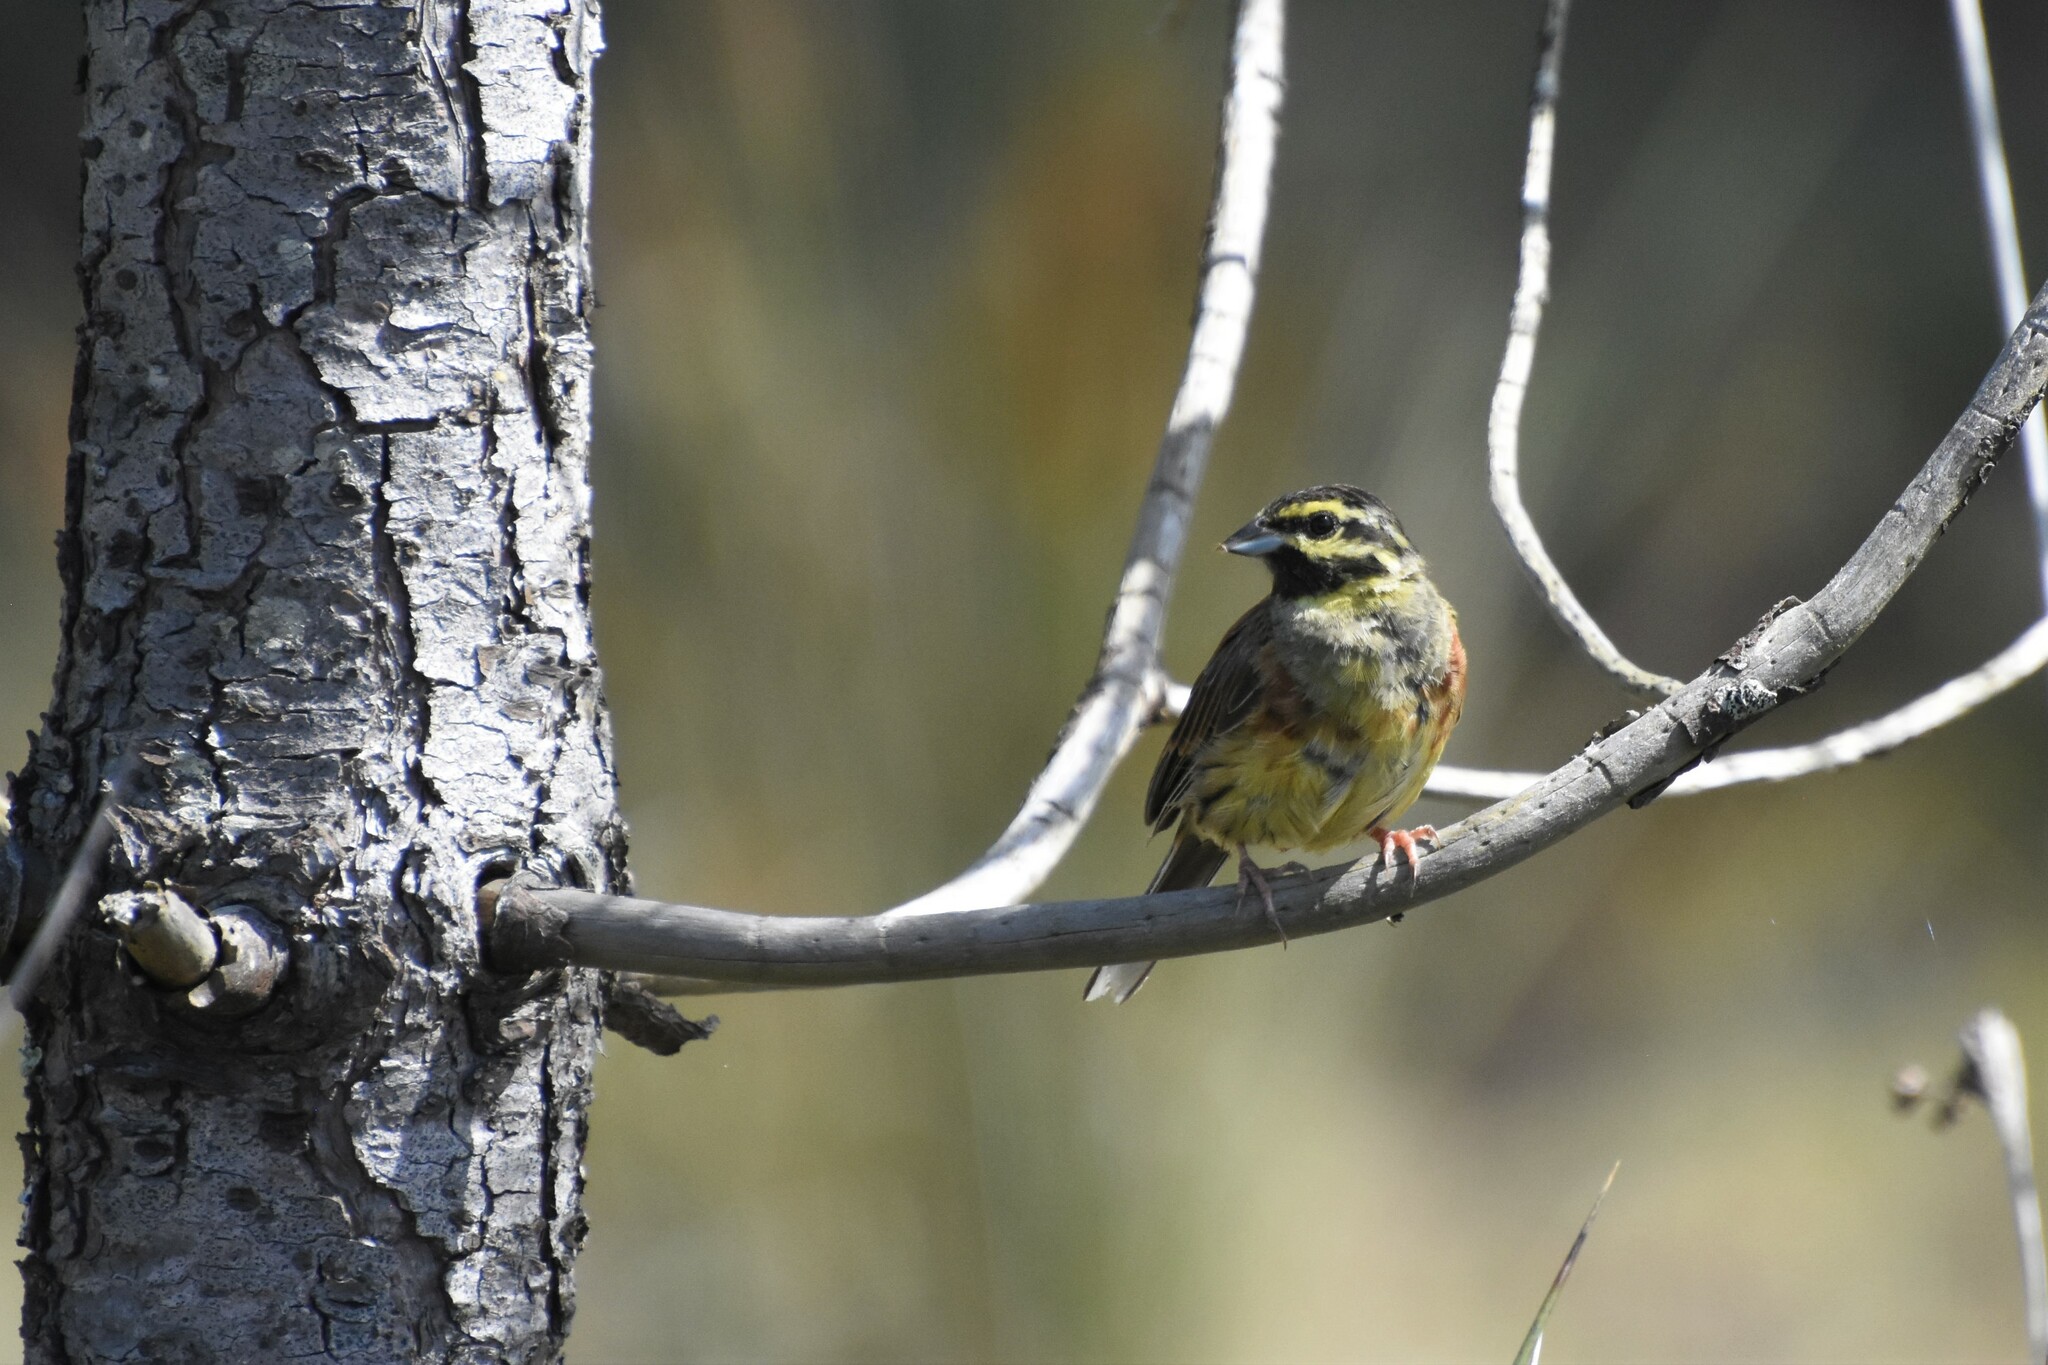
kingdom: Animalia
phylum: Chordata
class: Aves
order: Passeriformes
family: Emberizidae
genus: Emberiza
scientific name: Emberiza cirlus
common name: Cirl bunting
